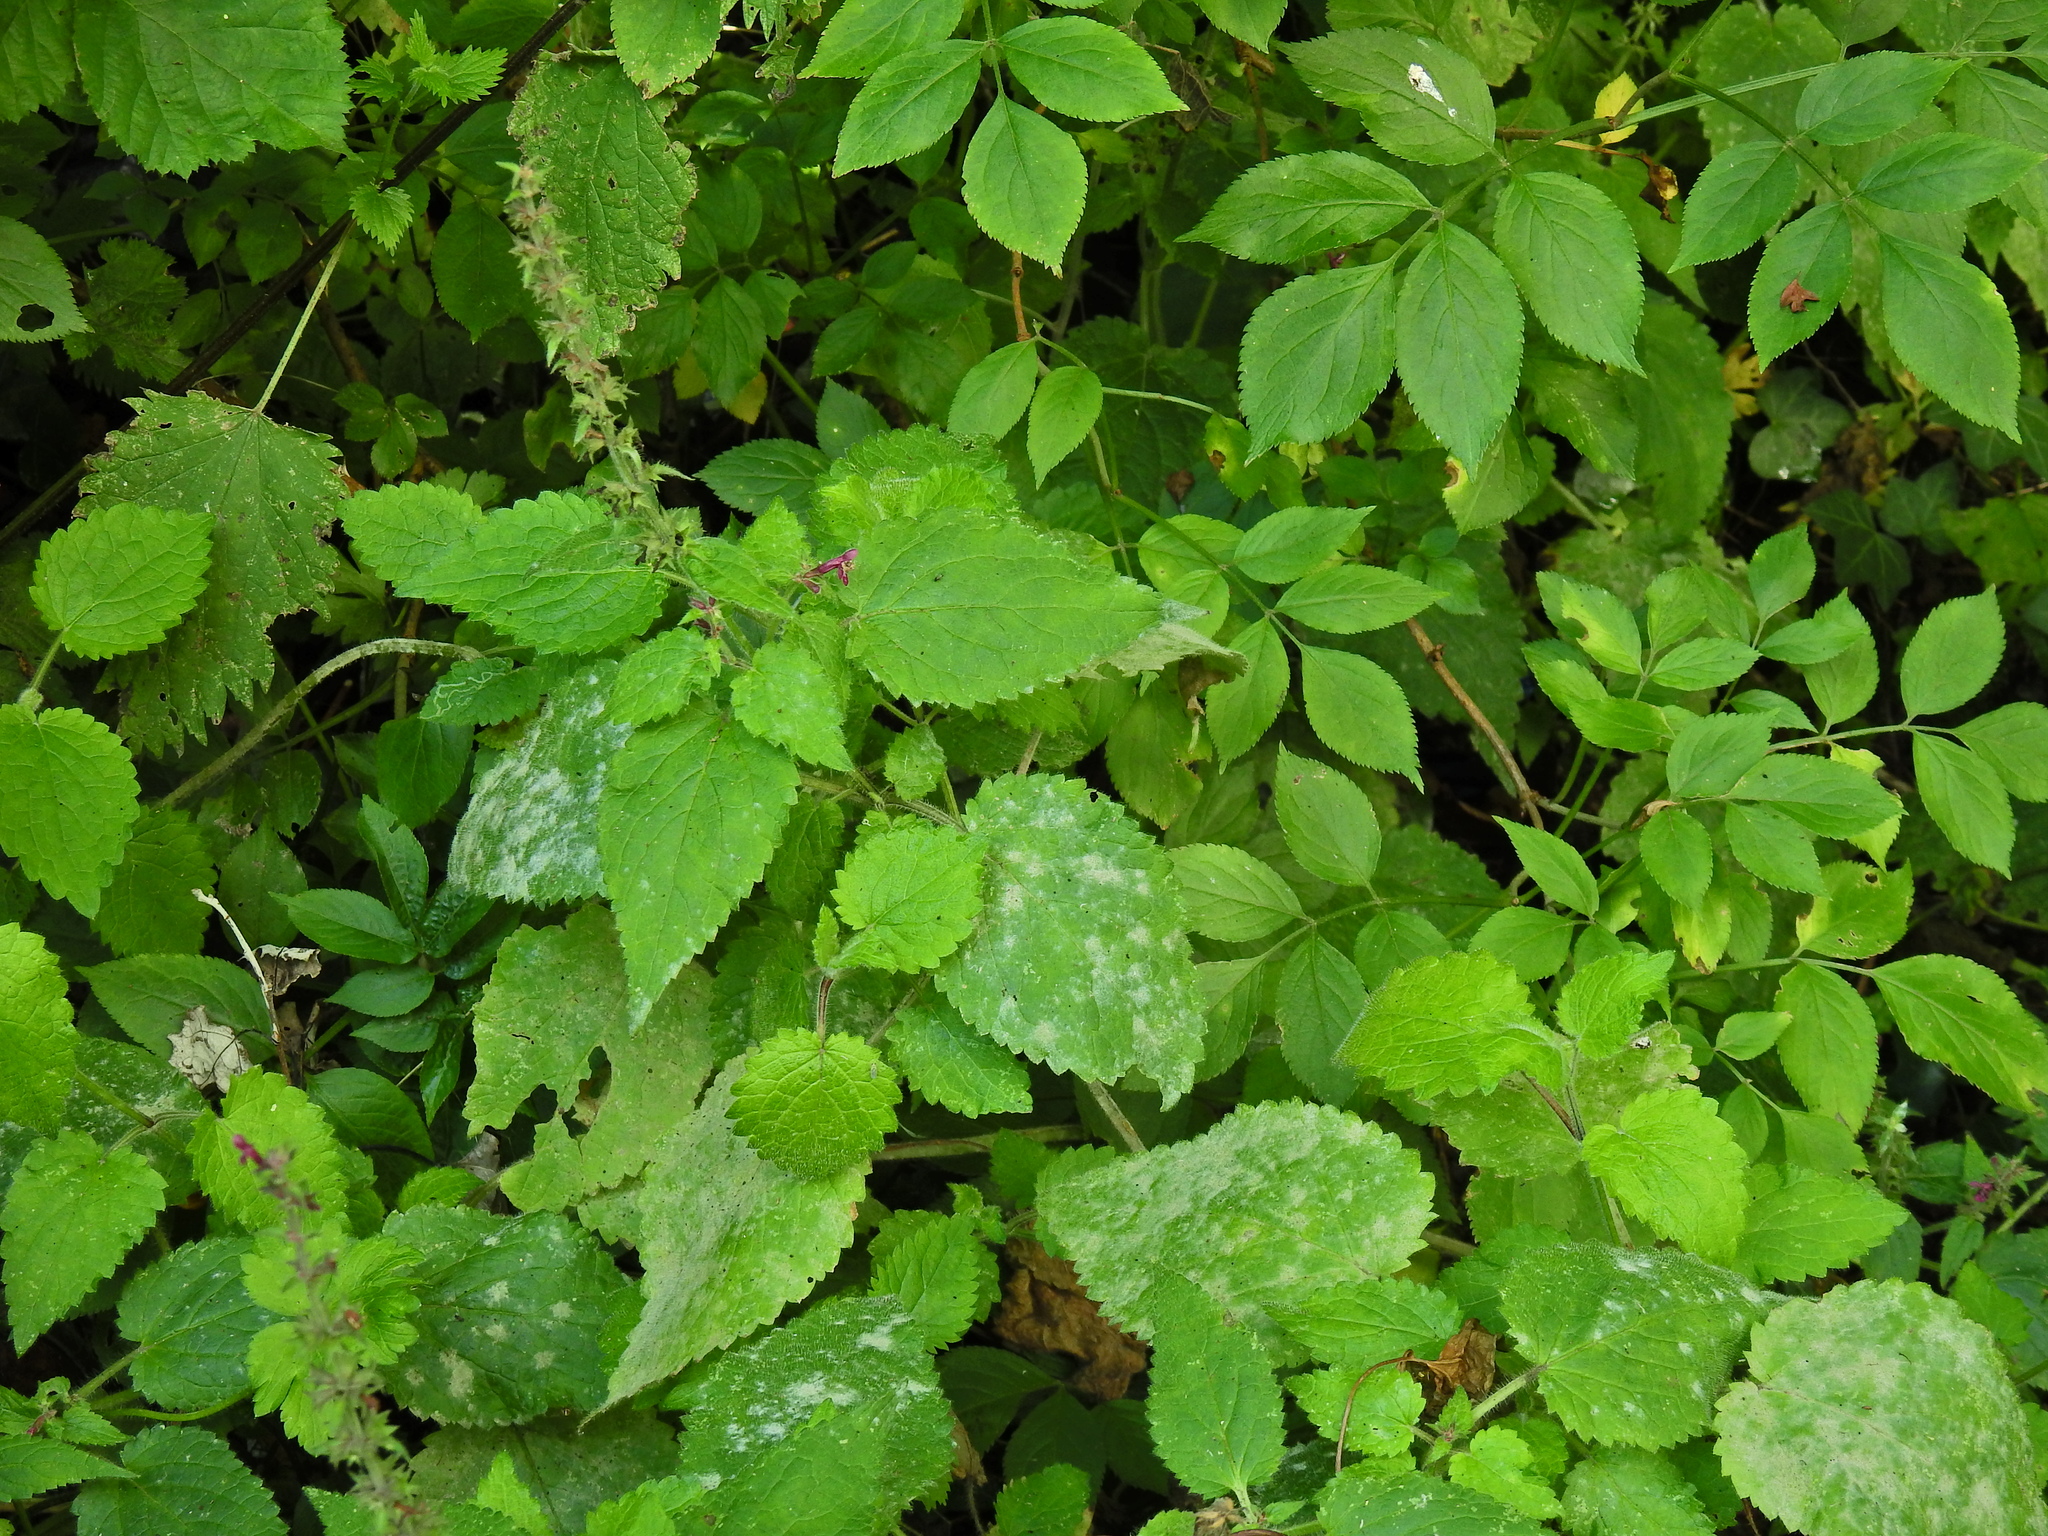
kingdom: Plantae
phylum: Tracheophyta
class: Magnoliopsida
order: Lamiales
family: Lamiaceae
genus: Stachys
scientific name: Stachys sylvatica
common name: Hedge woundwort
